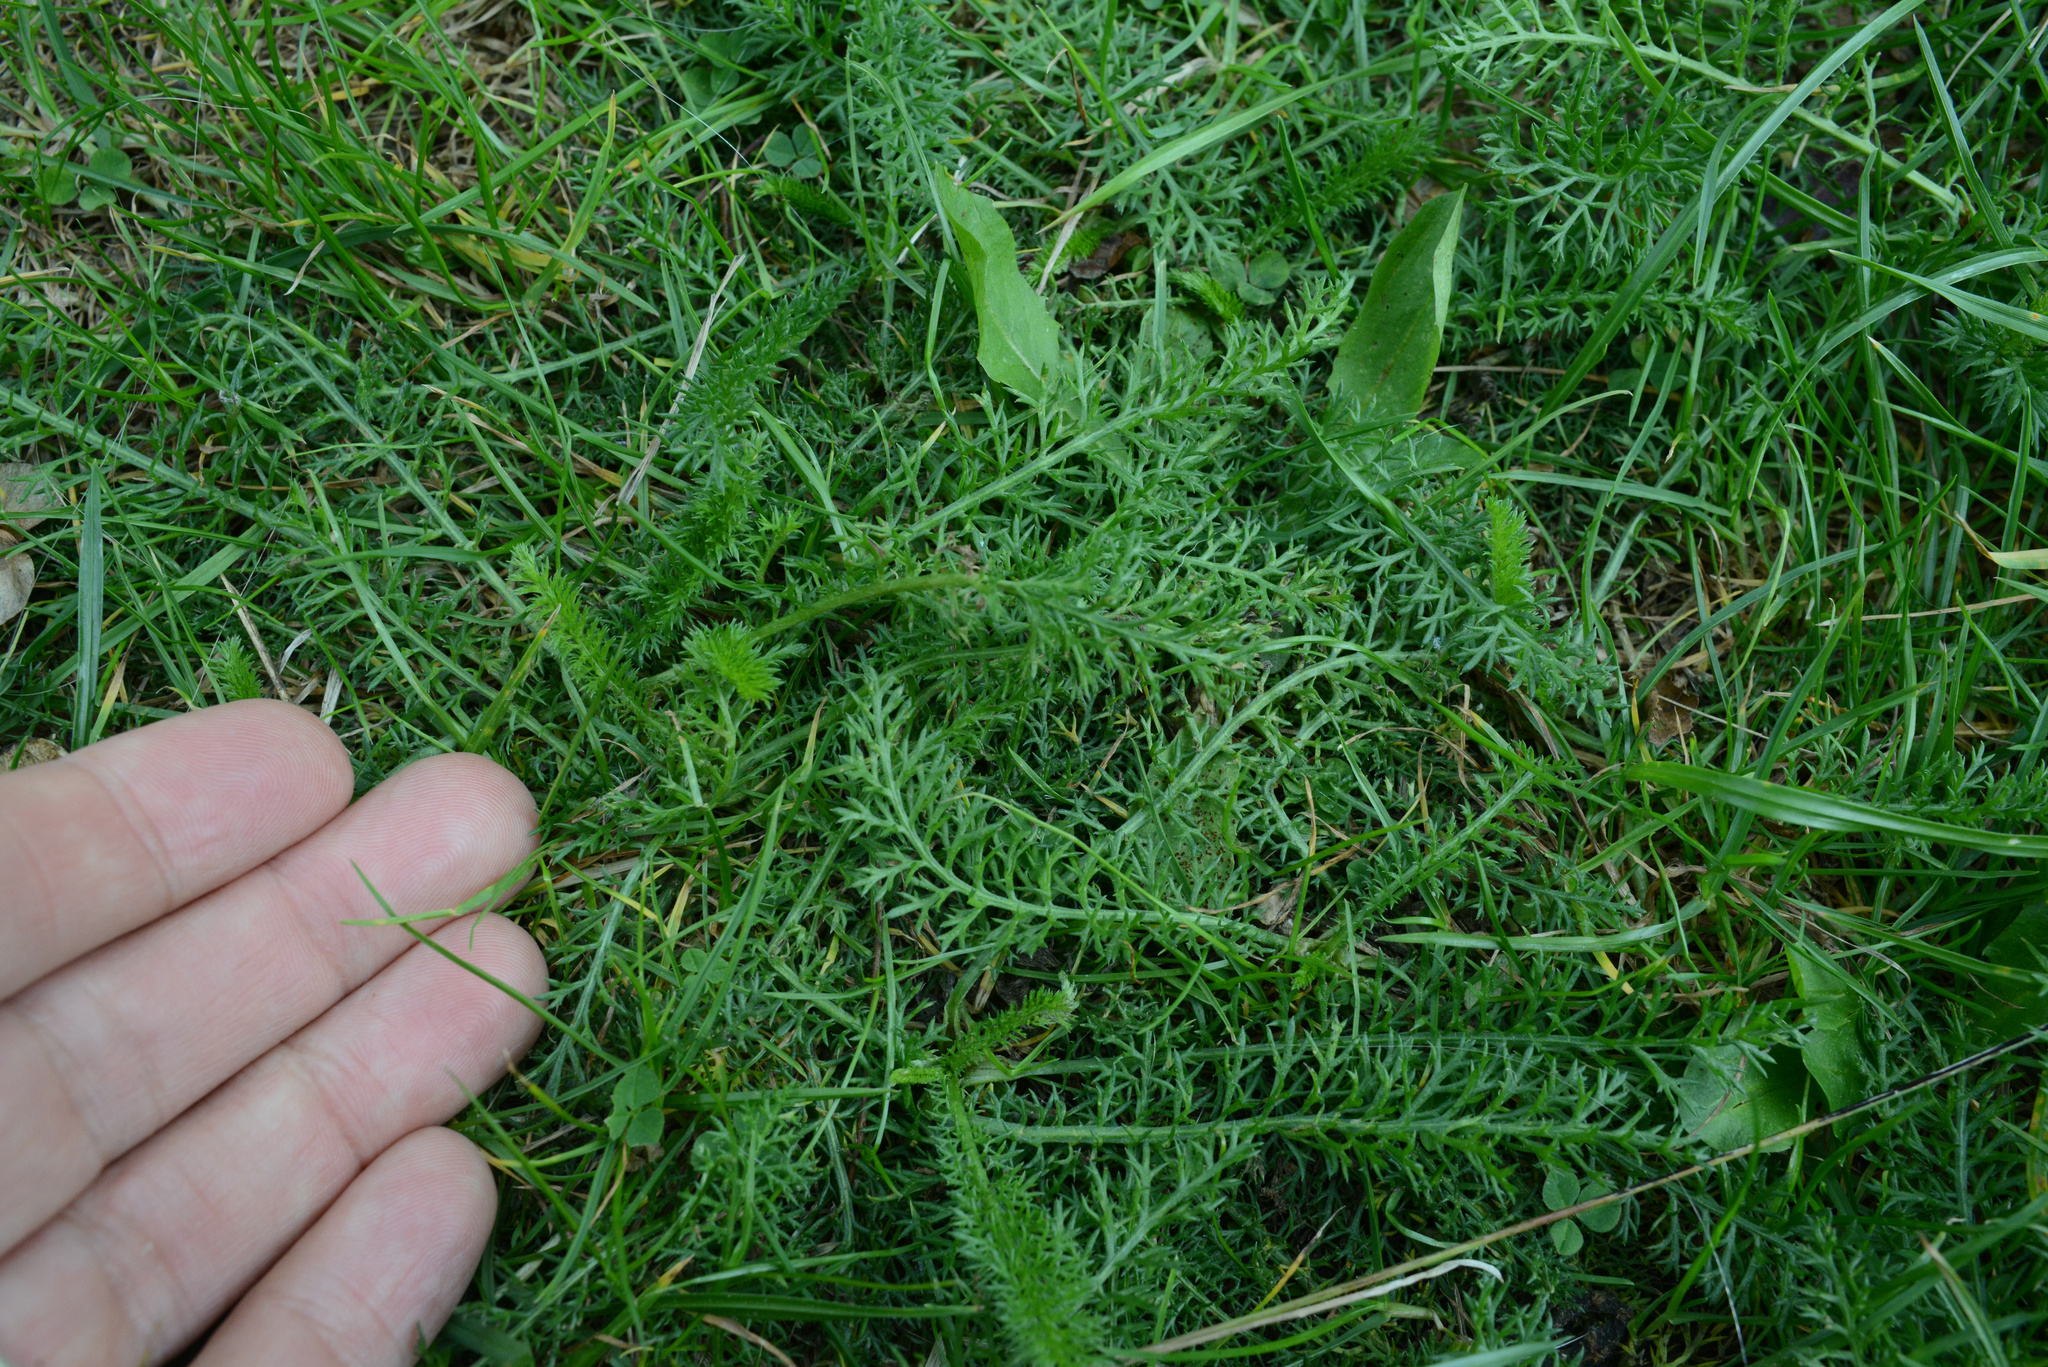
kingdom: Plantae
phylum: Tracheophyta
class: Magnoliopsida
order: Asterales
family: Asteraceae
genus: Achillea
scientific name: Achillea millefolium
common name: Yarrow
